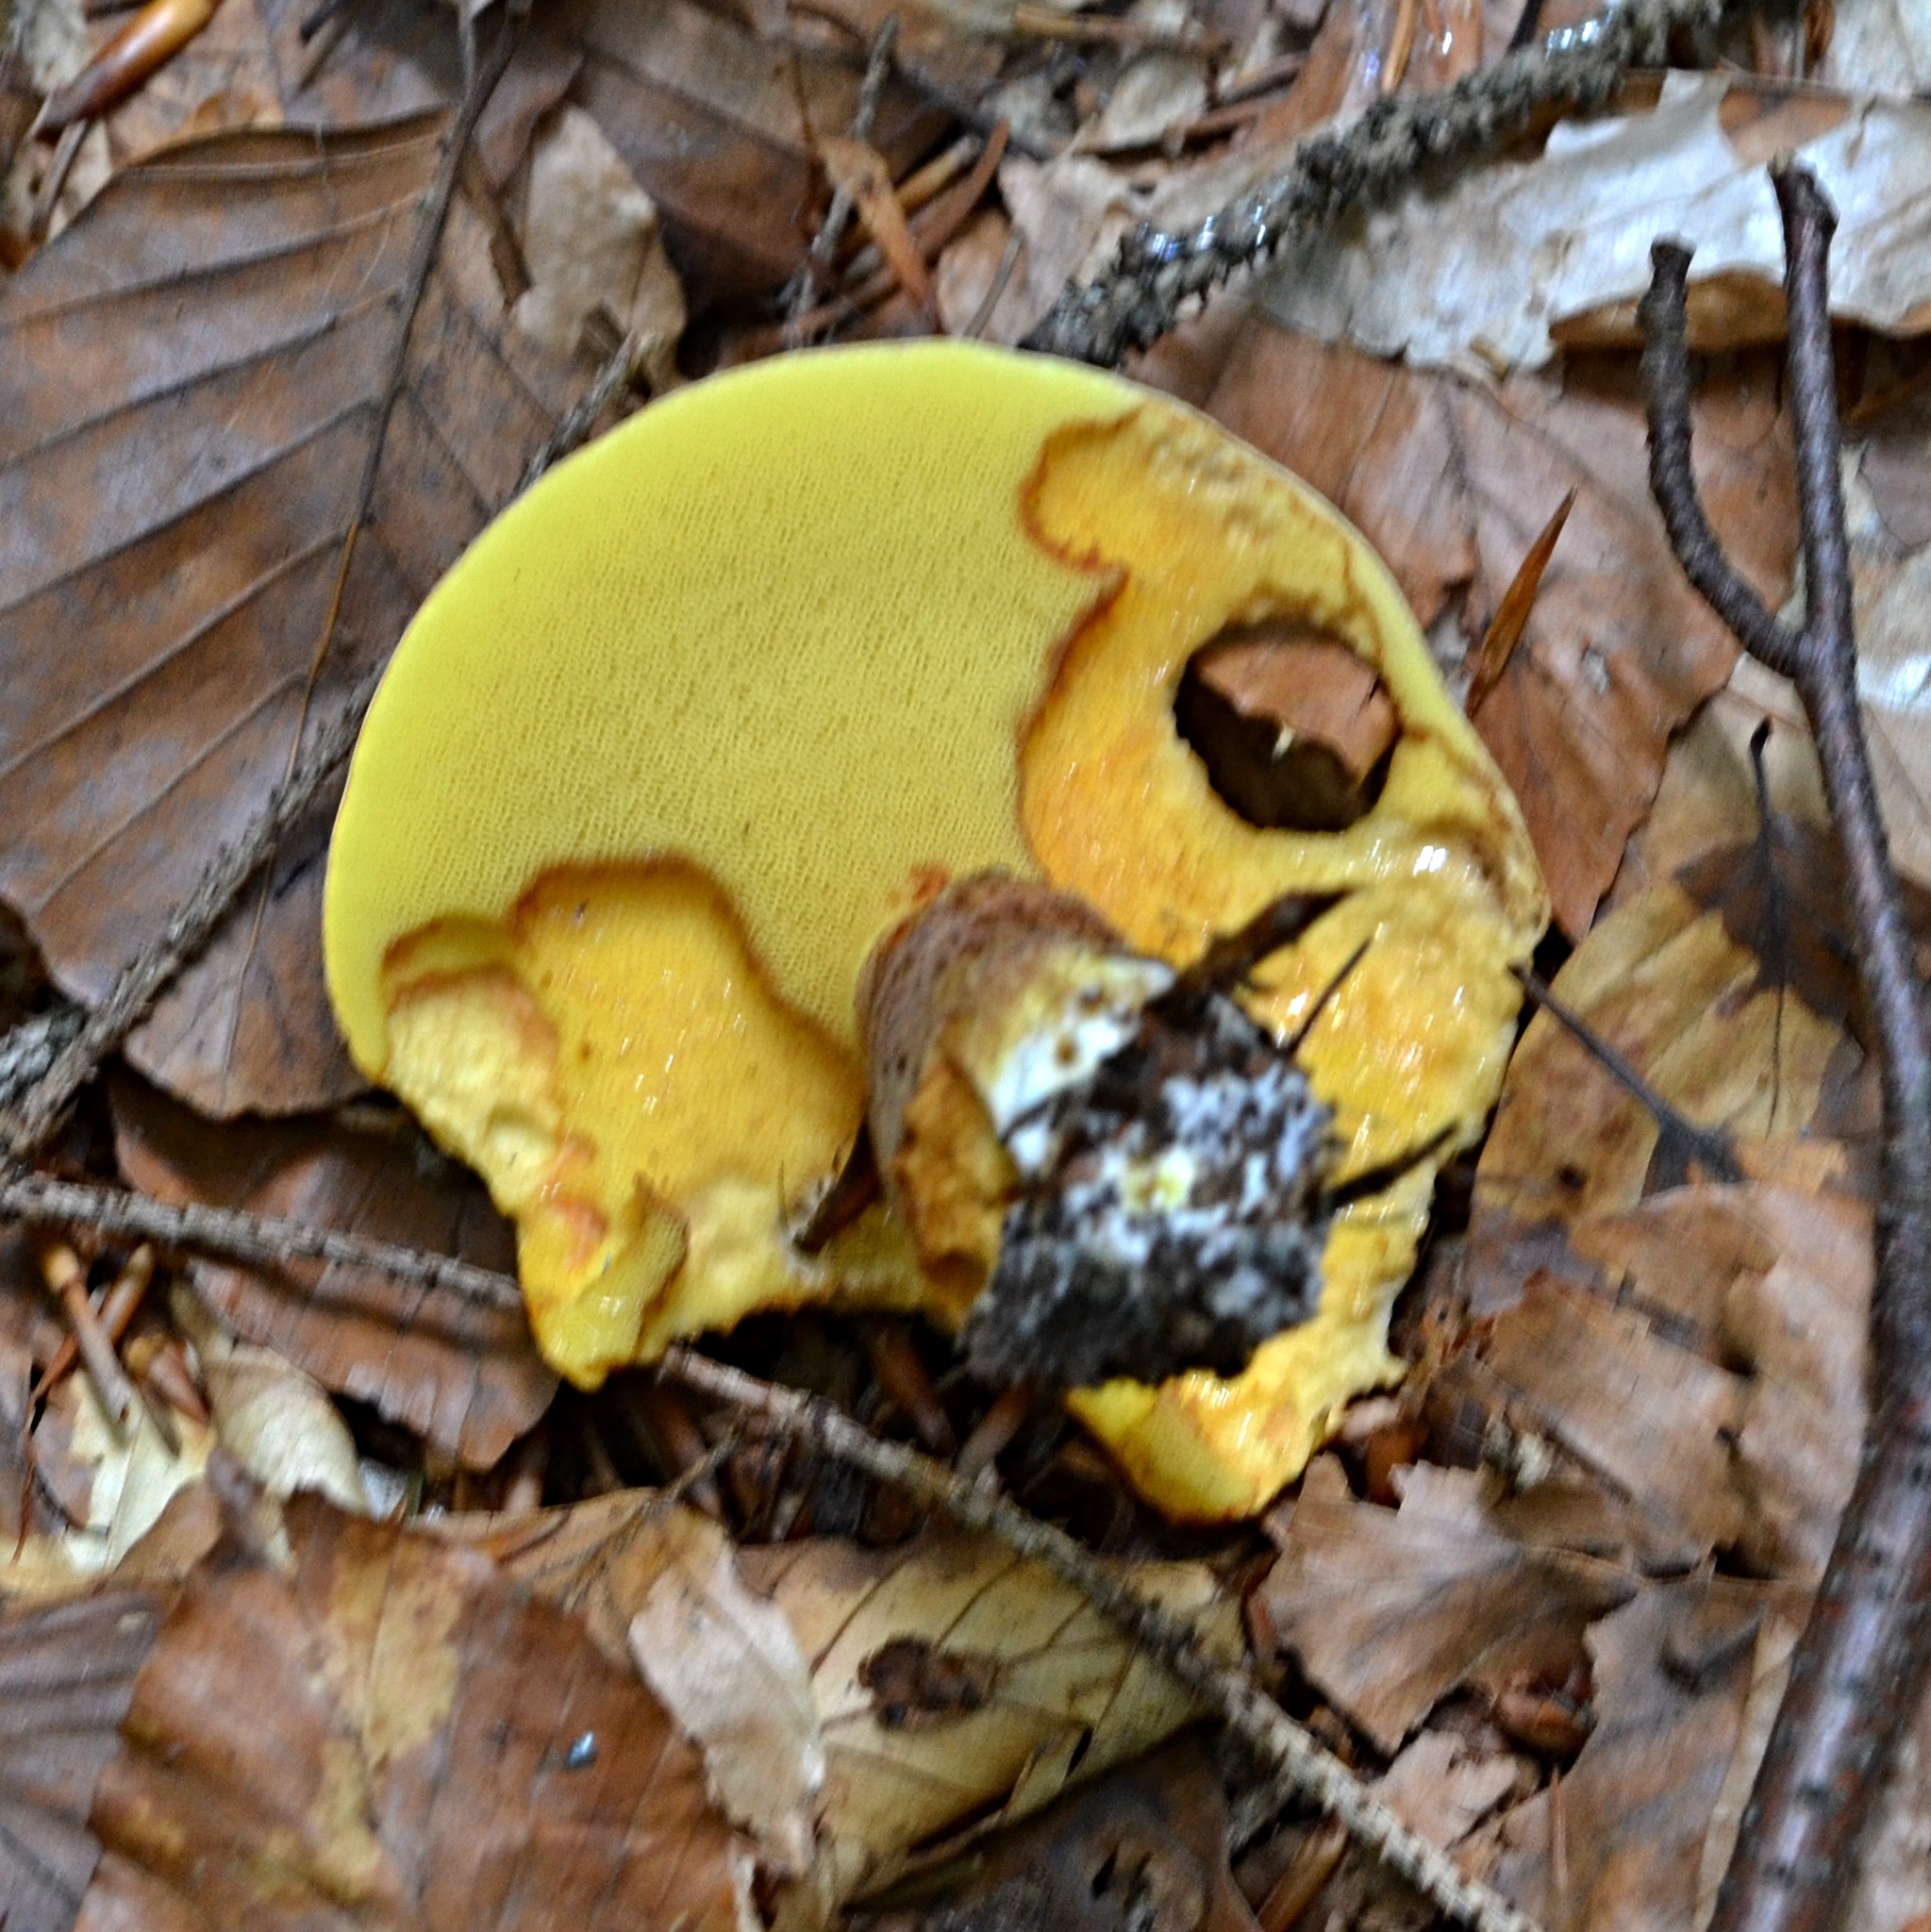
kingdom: Fungi
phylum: Basidiomycota
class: Agaricomycetes
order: Boletales
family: Suillaceae
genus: Suillus
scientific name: Suillus grevillei
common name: Larch bolete
